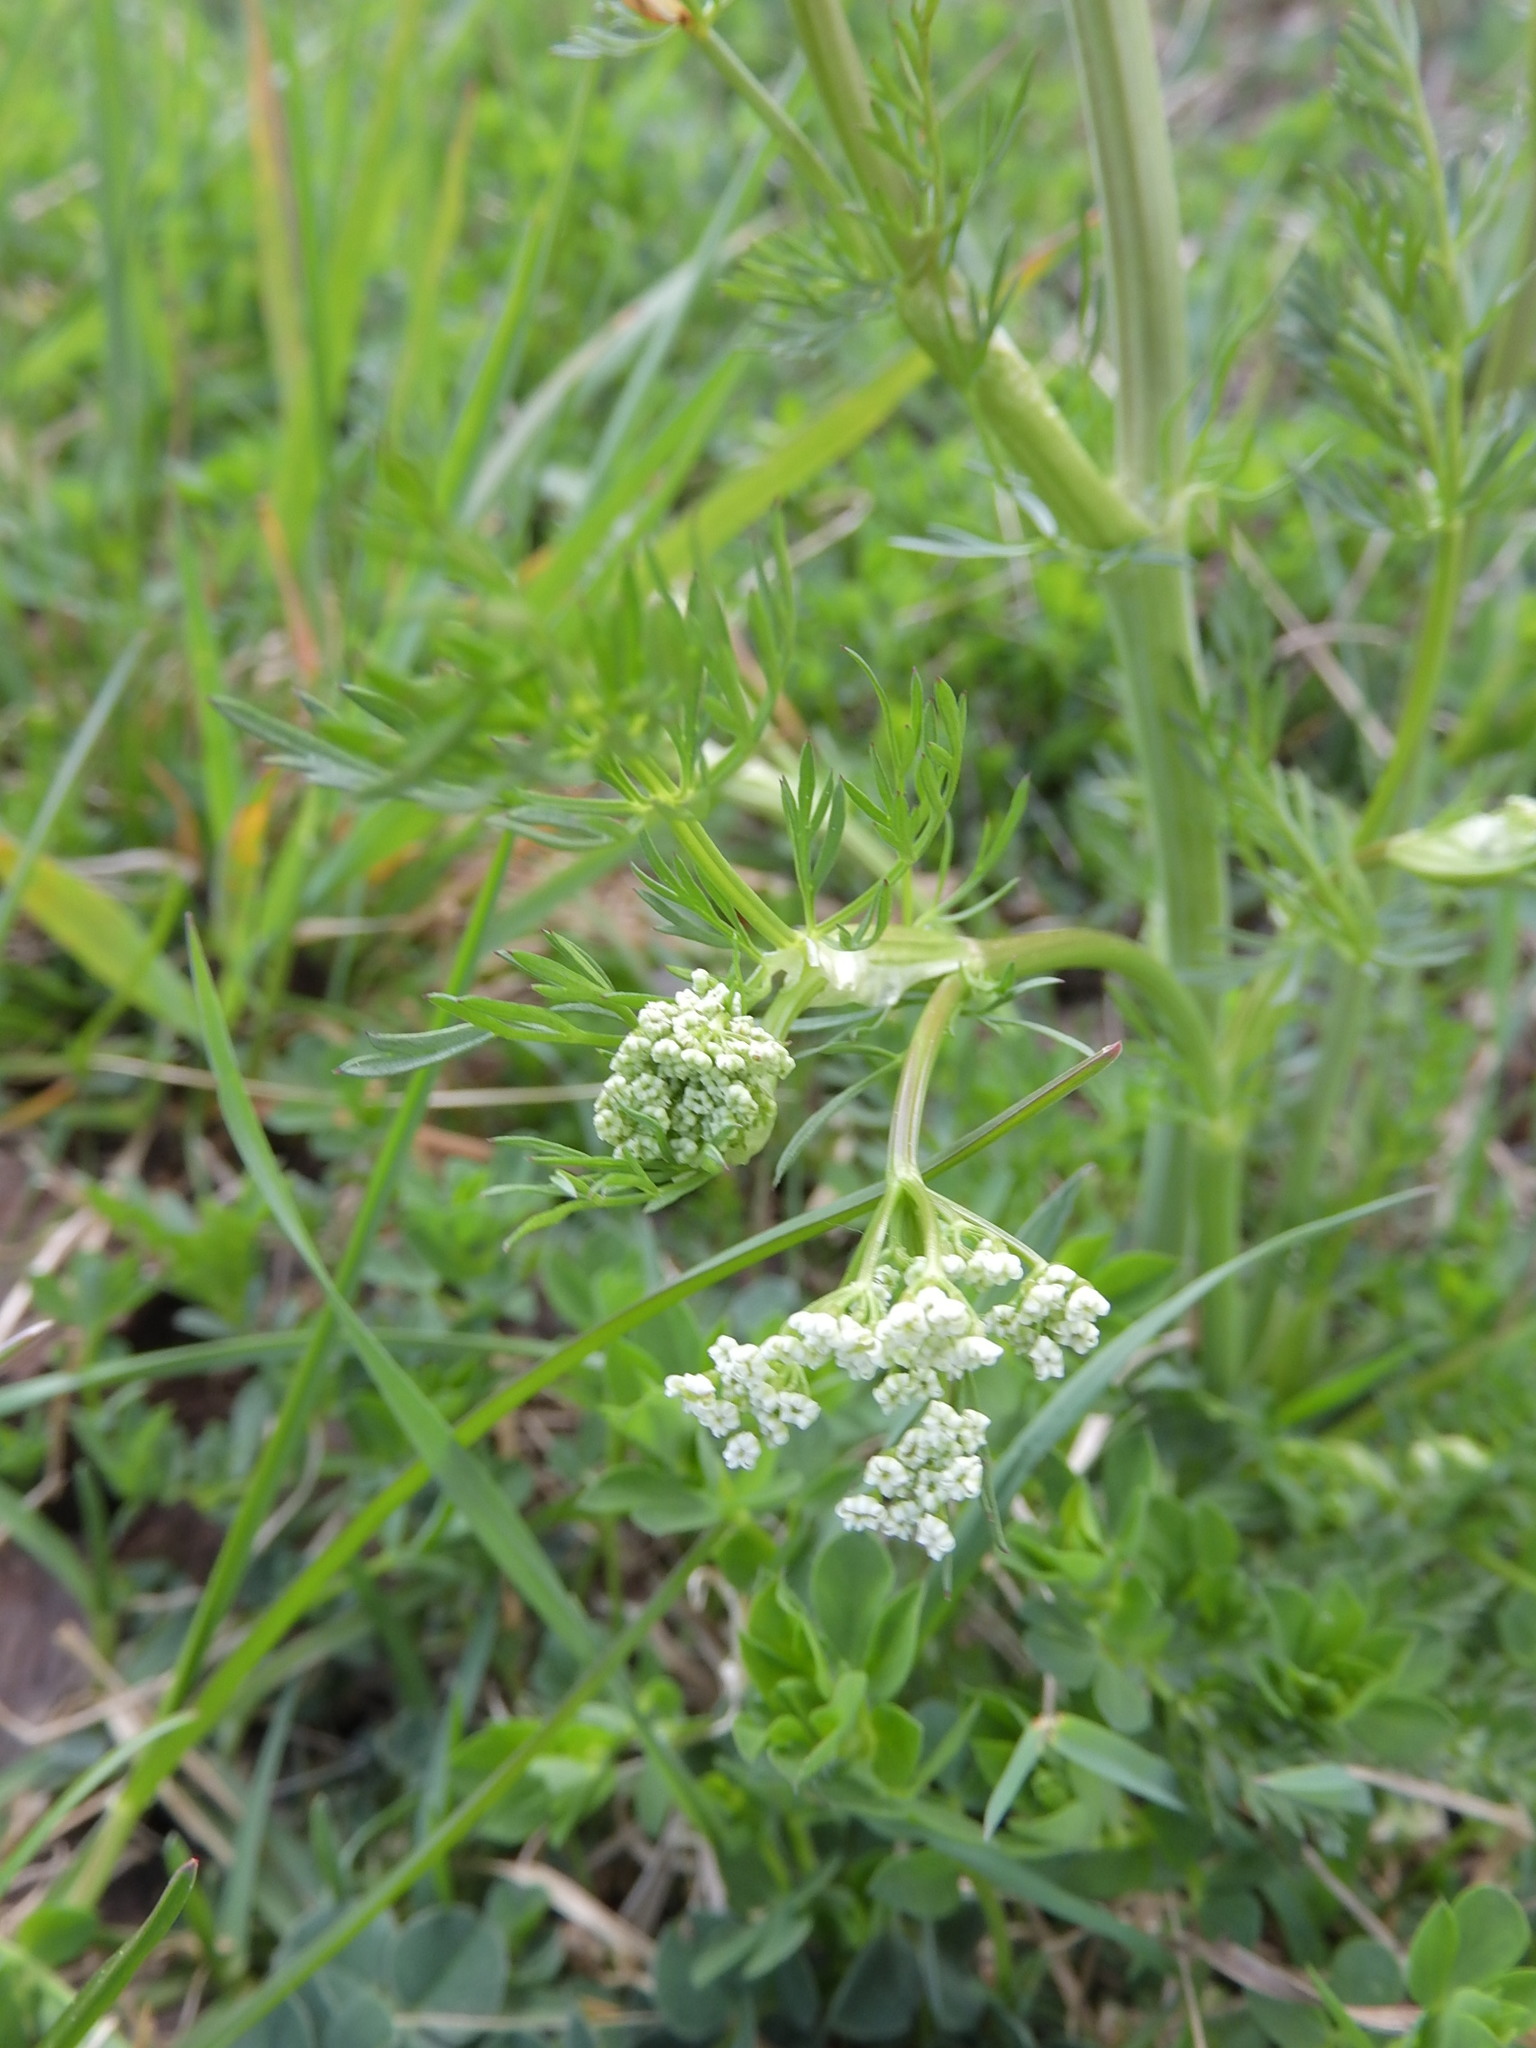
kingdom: Plantae
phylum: Tracheophyta
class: Magnoliopsida
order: Apiales
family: Apiaceae
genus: Carum
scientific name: Carum carvi
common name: Caraway
